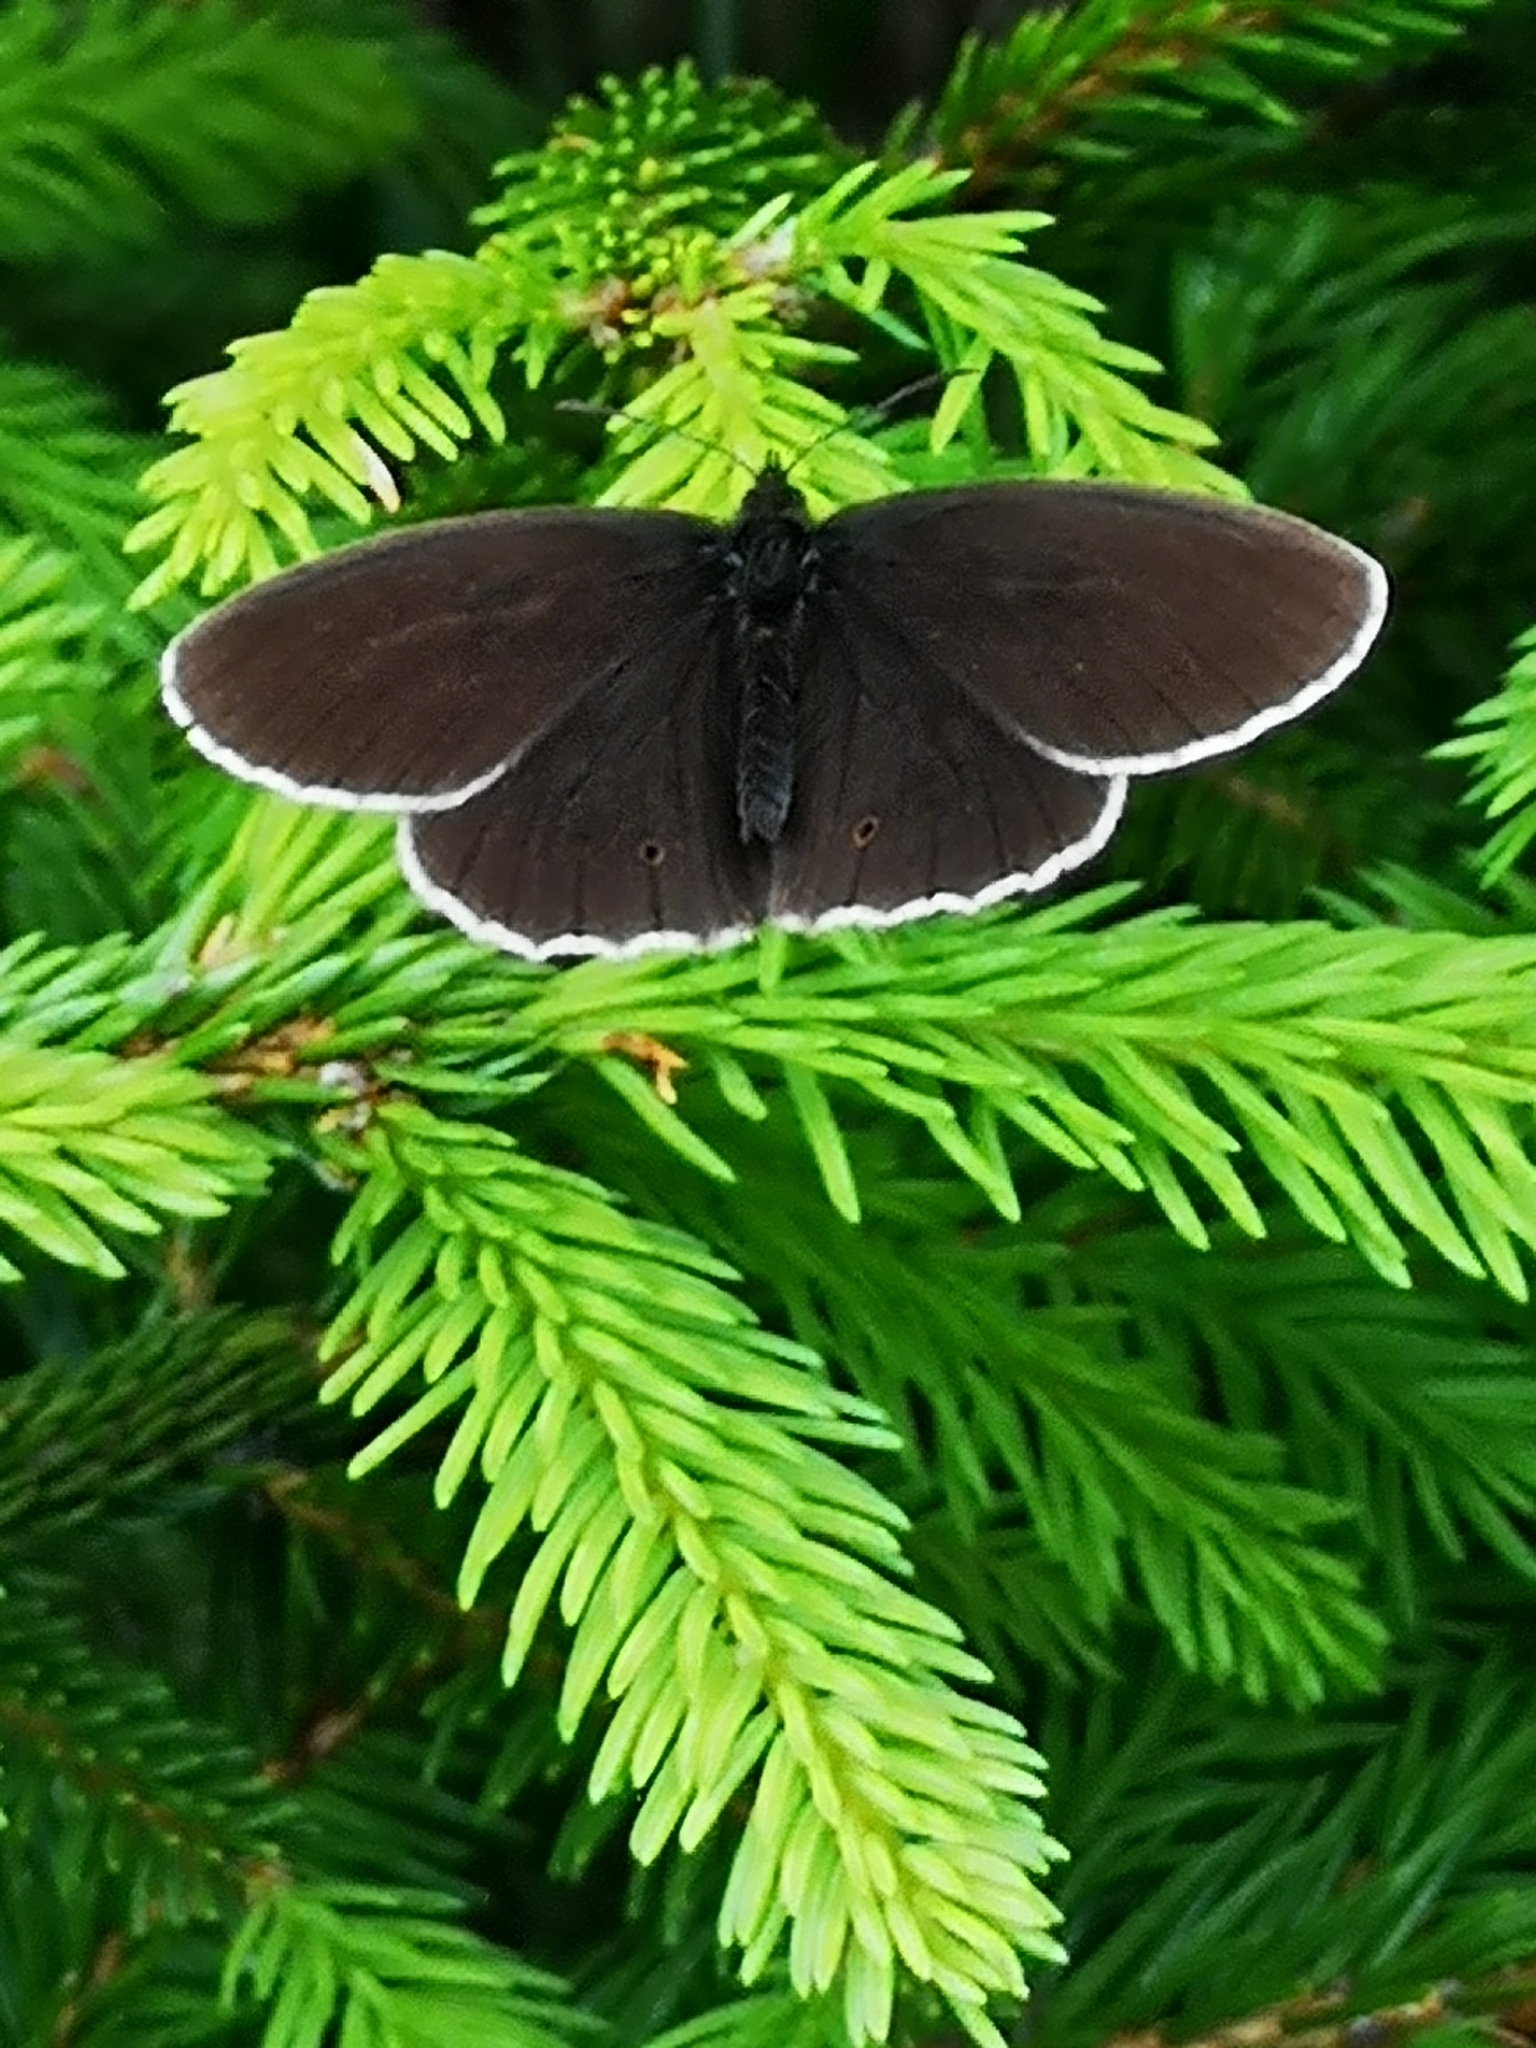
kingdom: Animalia
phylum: Arthropoda
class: Insecta
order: Lepidoptera
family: Nymphalidae
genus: Aphantopus
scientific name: Aphantopus hyperantus
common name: Ringlet
